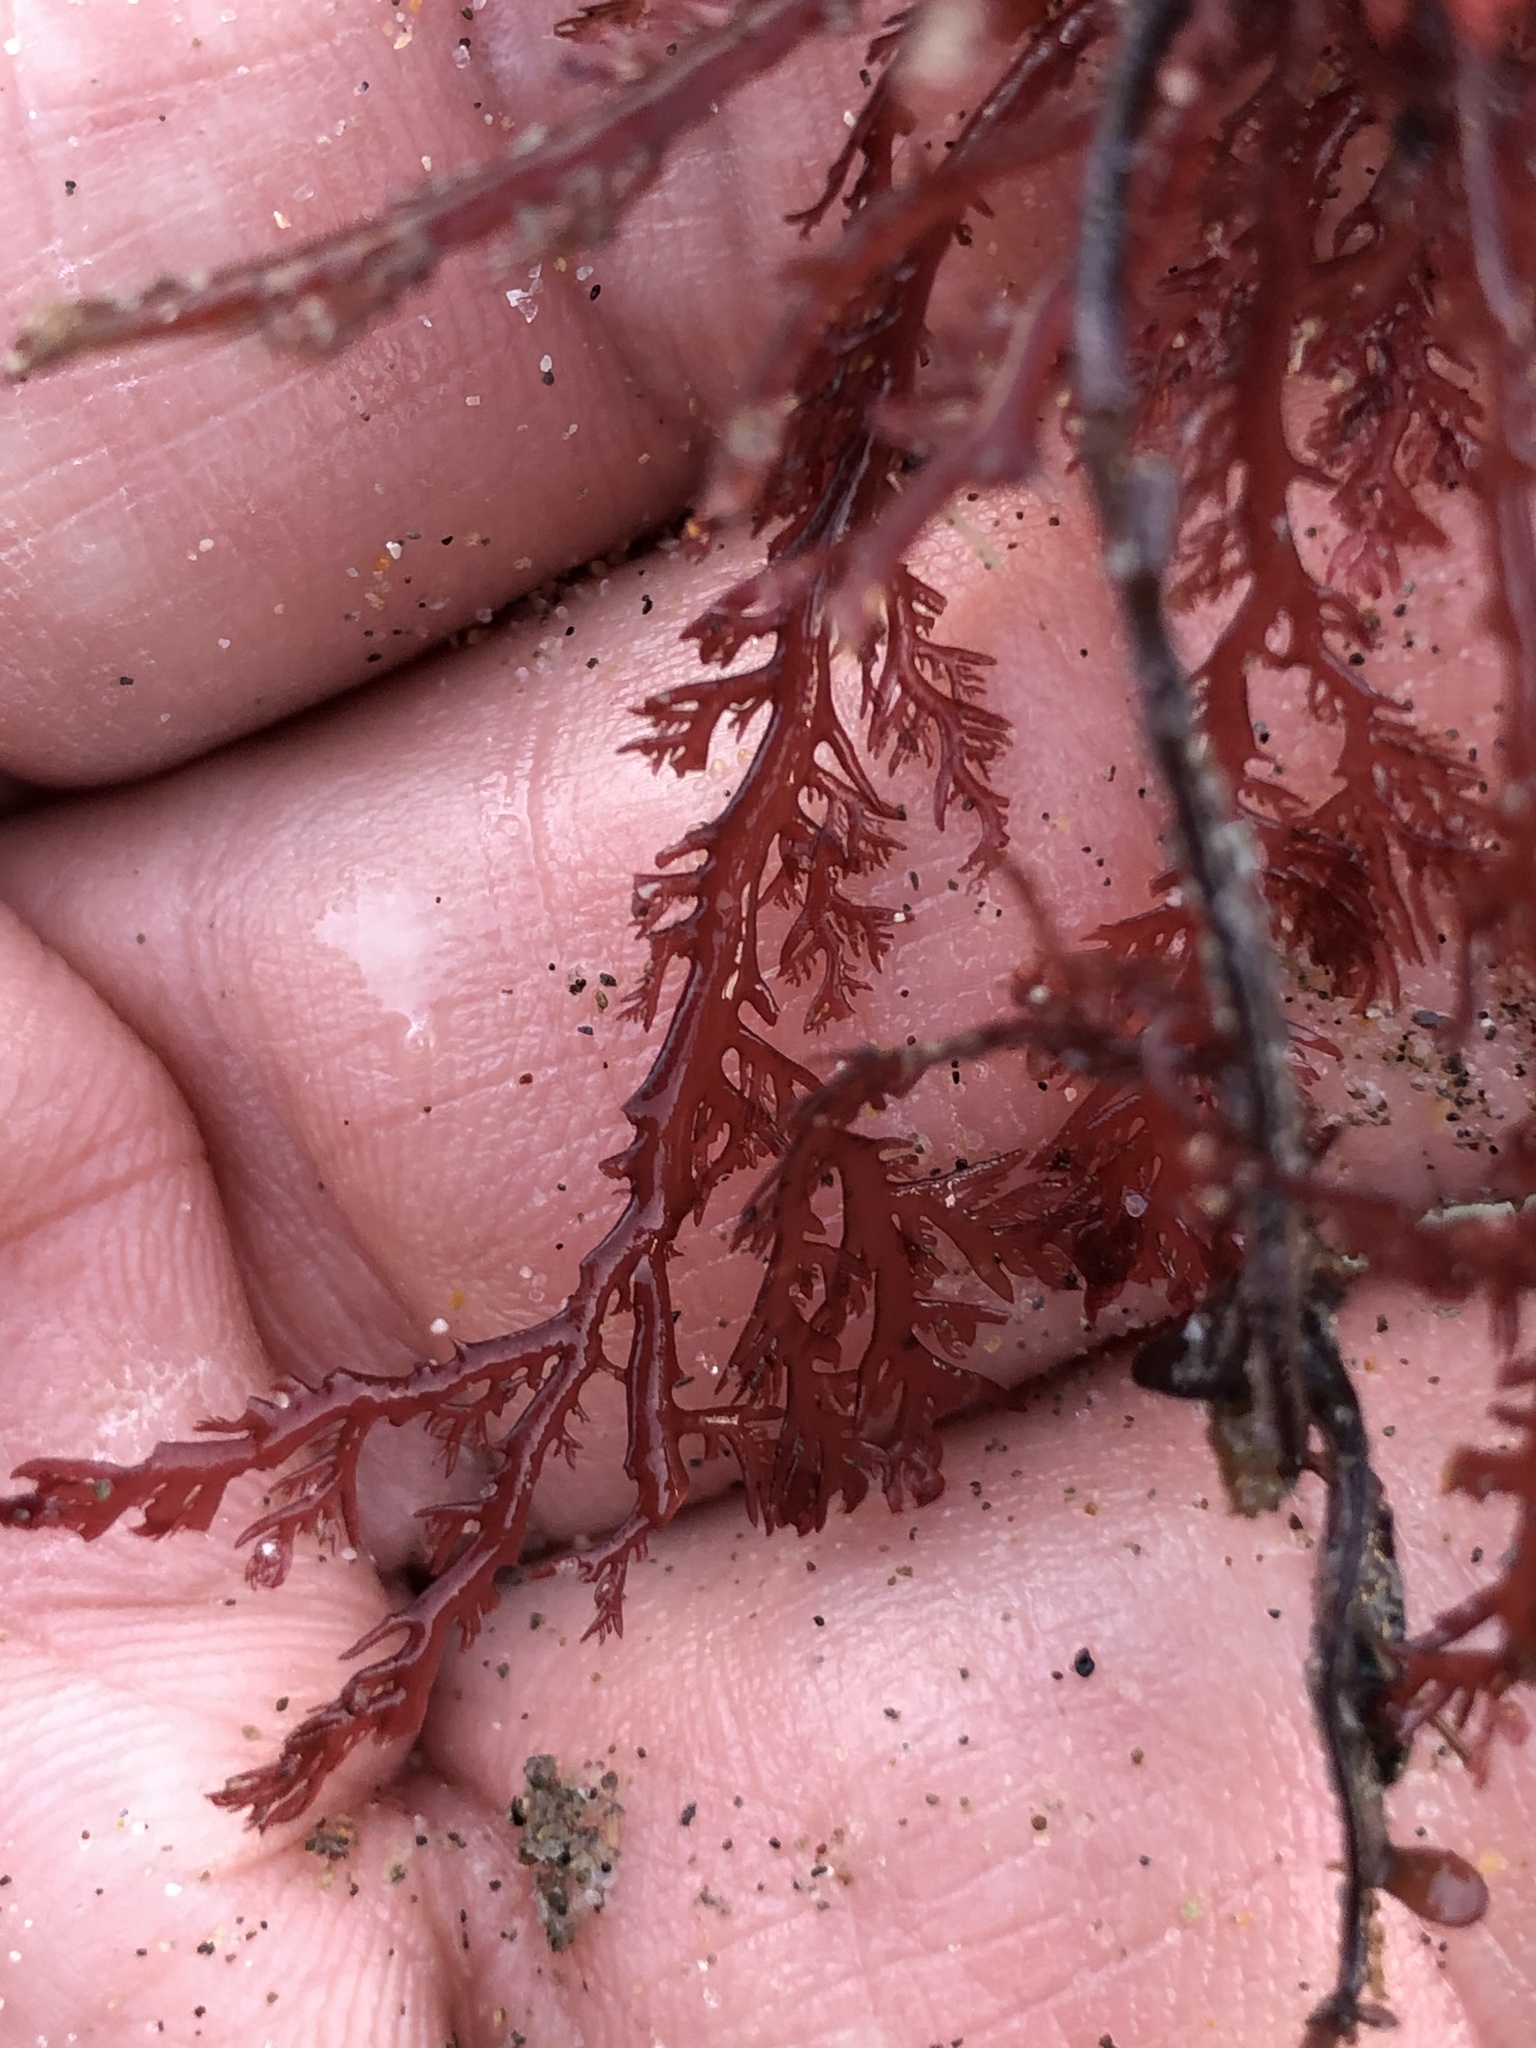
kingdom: Plantae
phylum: Rhodophyta
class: Florideophyceae
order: Plocamiales
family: Plocamiaceae
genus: Plocamium
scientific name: Plocamium cartilagineum
